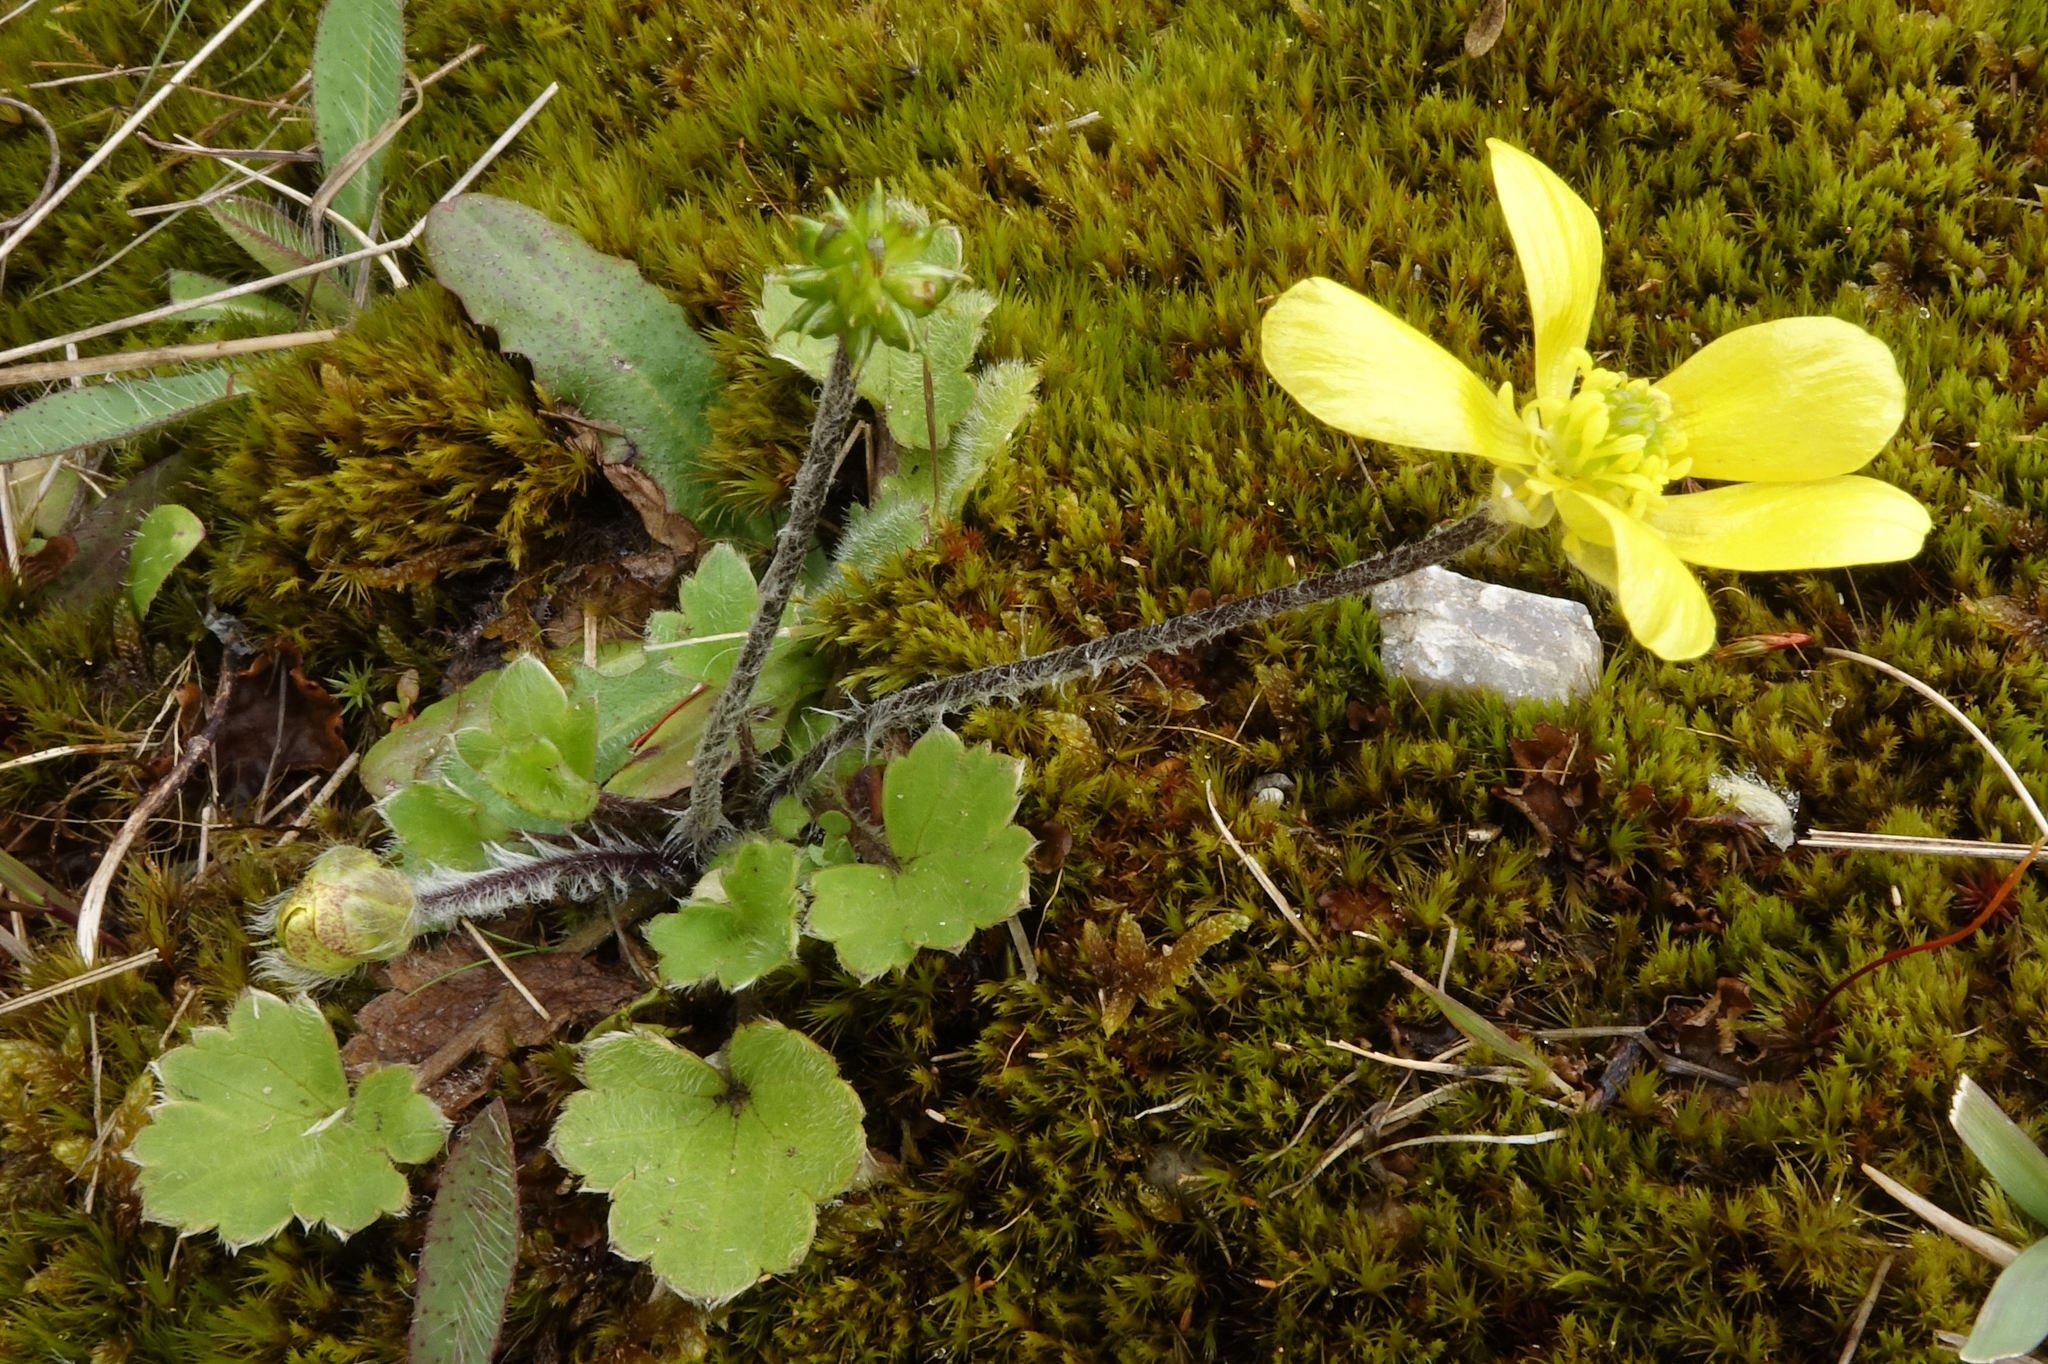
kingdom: Plantae
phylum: Tracheophyta
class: Magnoliopsida
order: Ranunculales
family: Ranunculaceae
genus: Ranunculus
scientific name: Ranunculus multiscapus
